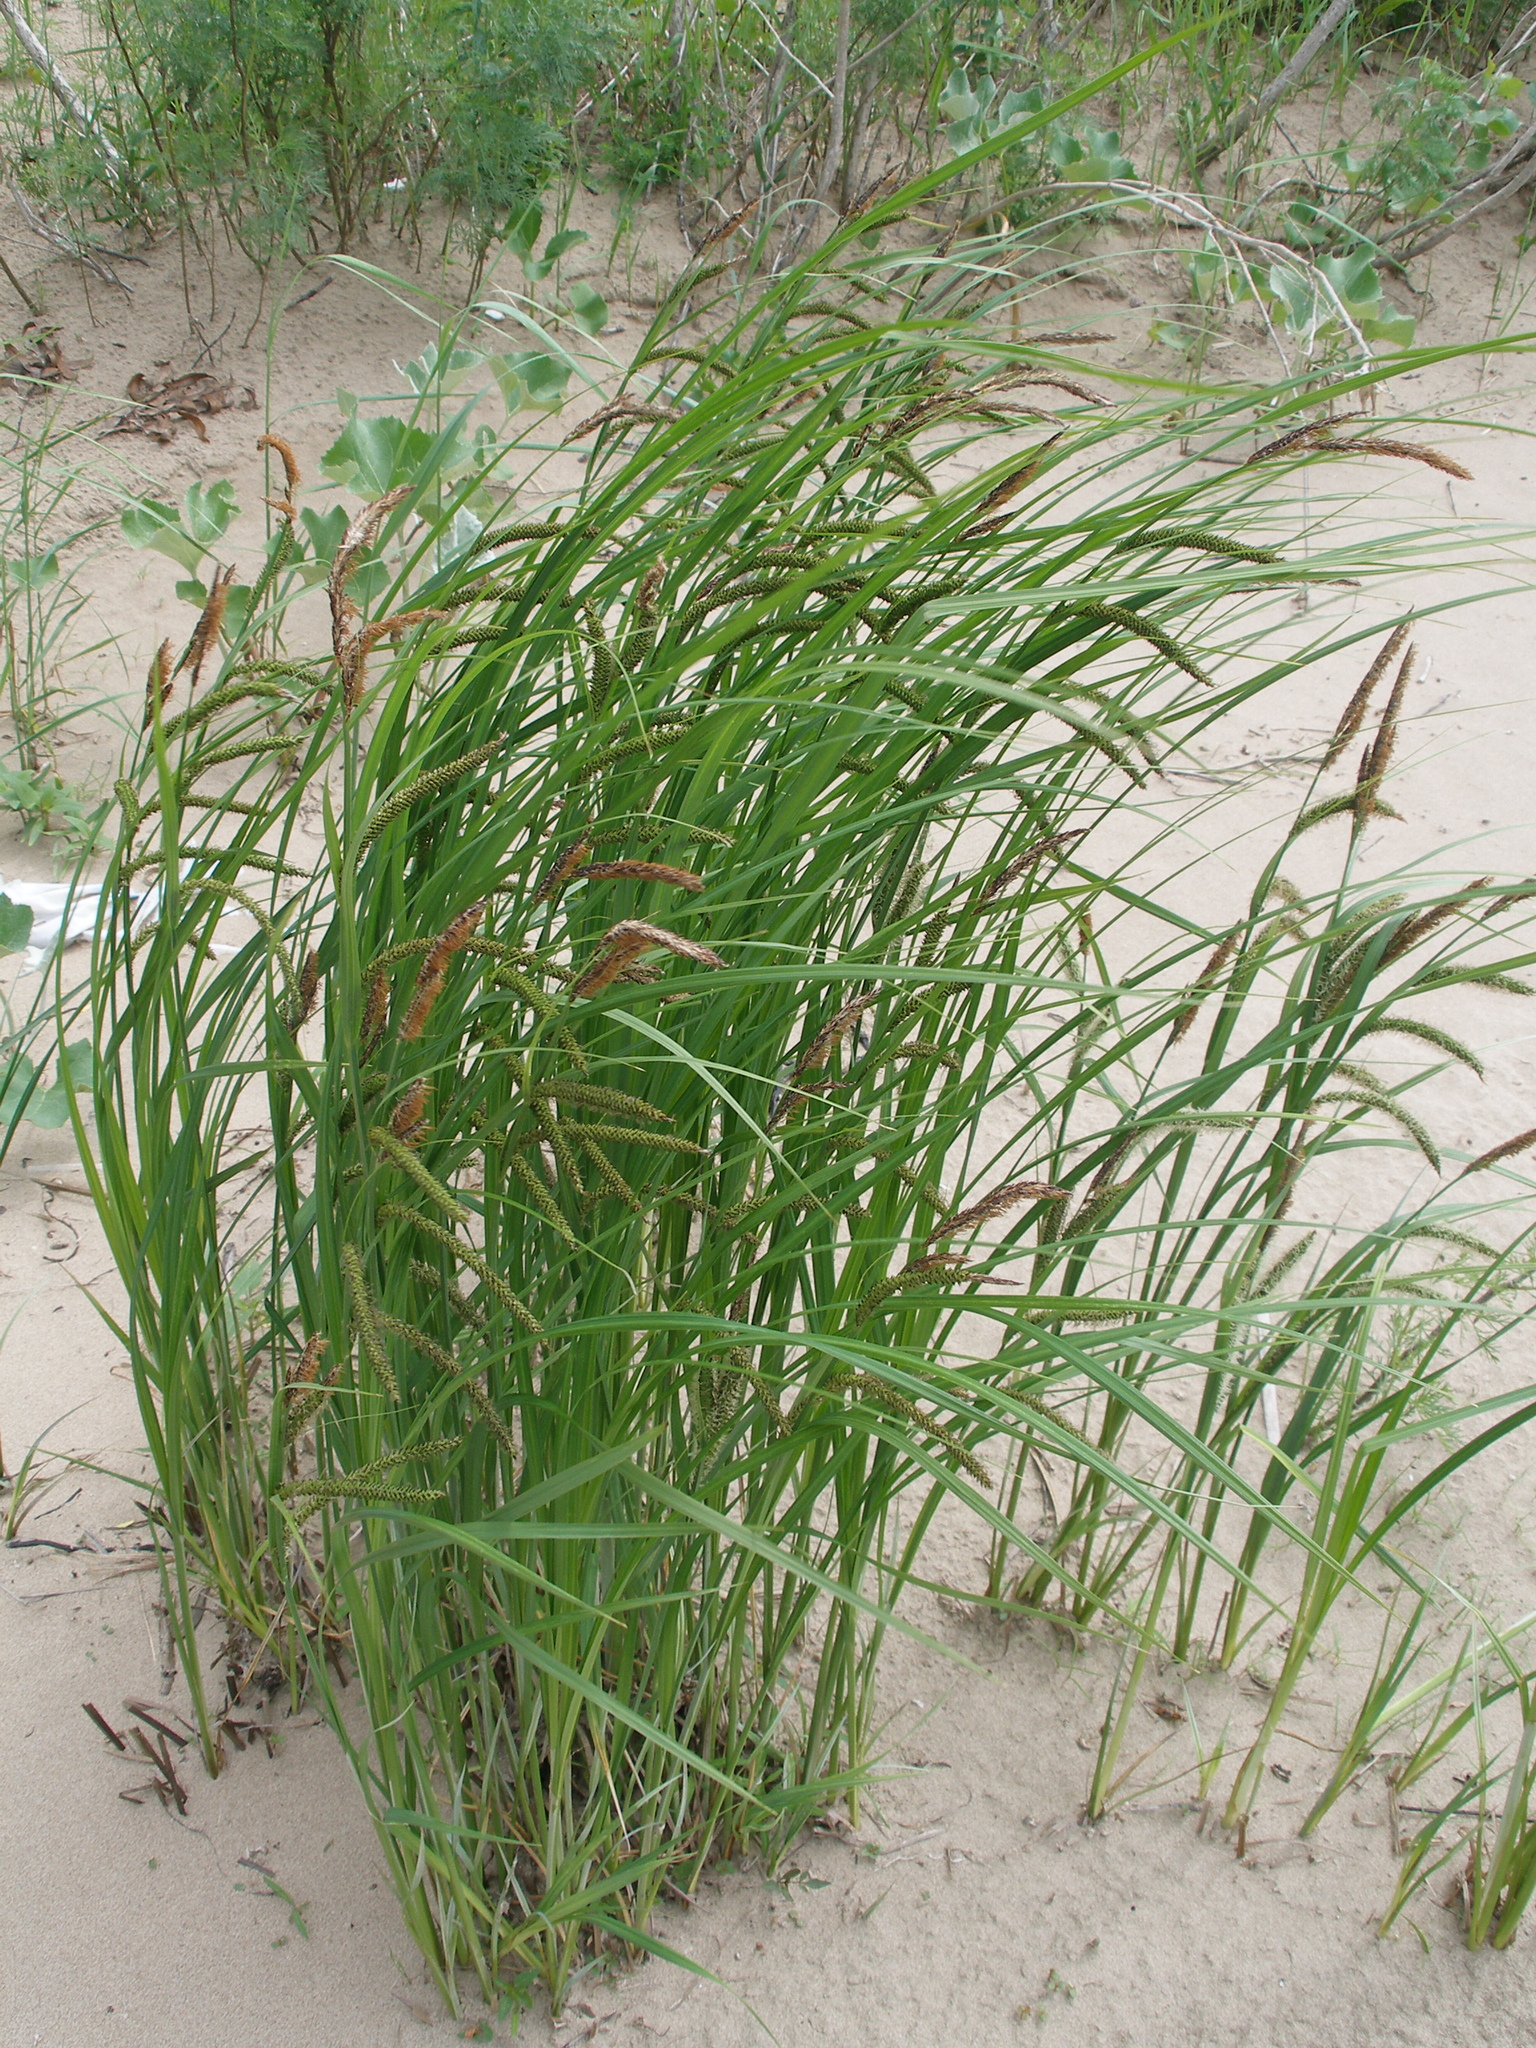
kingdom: Plantae
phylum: Tracheophyta
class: Liliopsida
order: Poales
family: Cyperaceae
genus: Carex
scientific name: Carex acuta
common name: Slender tufted-sedge
